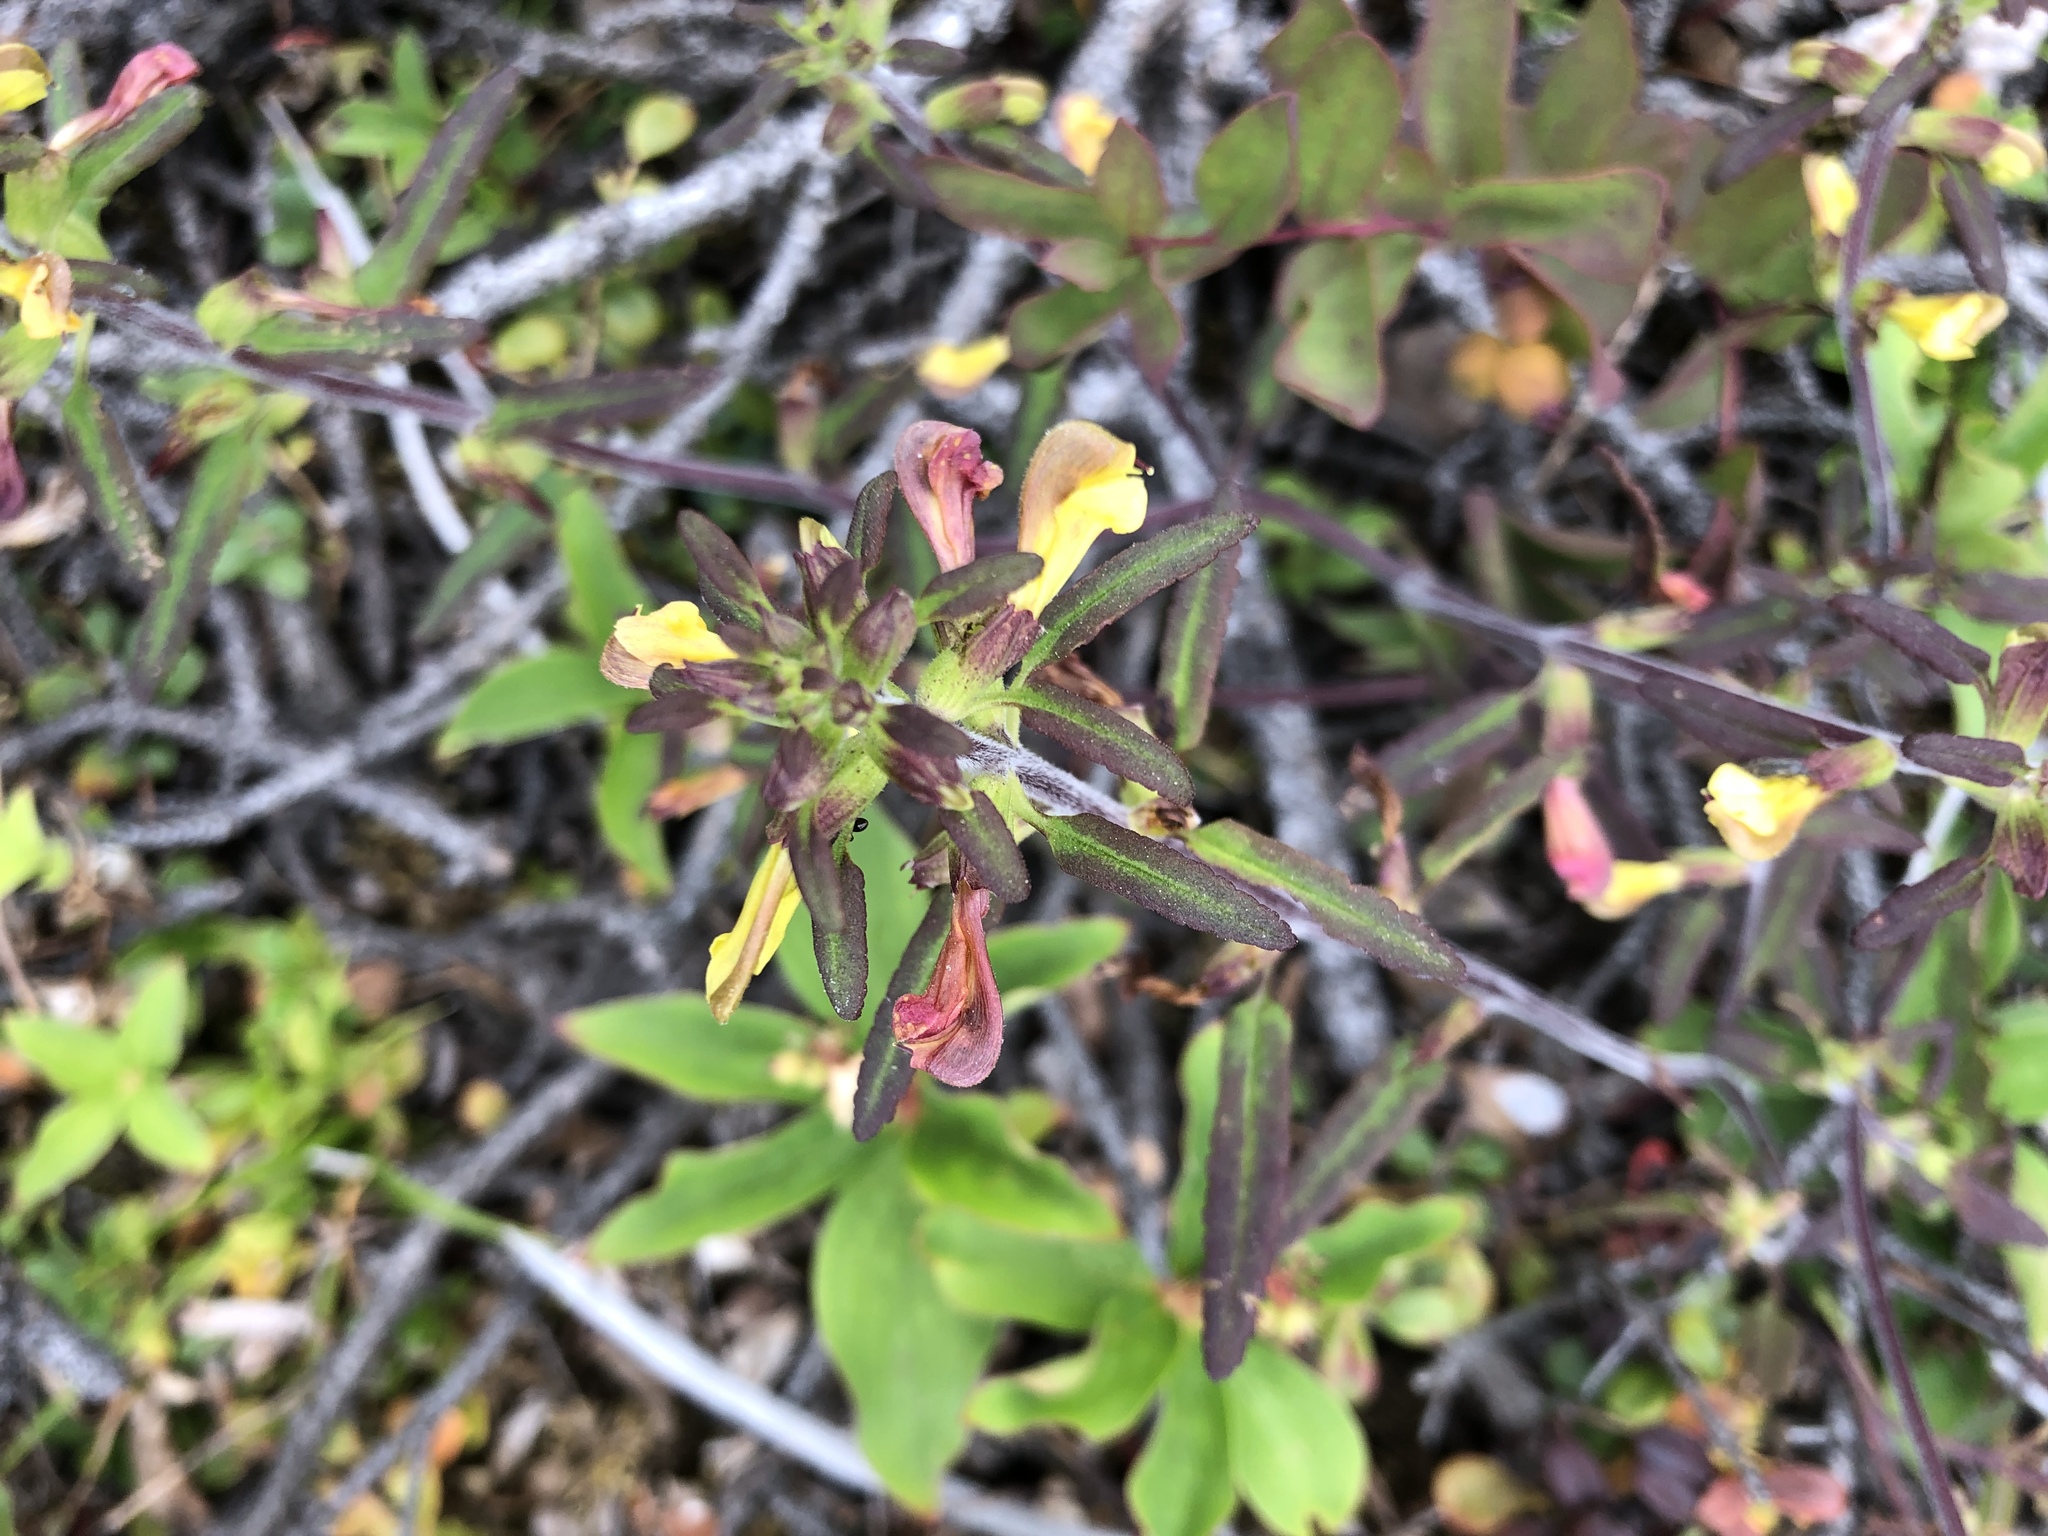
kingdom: Plantae
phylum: Tracheophyta
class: Magnoliopsida
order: Lamiales
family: Orobanchaceae
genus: Pedicularis
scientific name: Pedicularis labradorica
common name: Labrador lousewort
